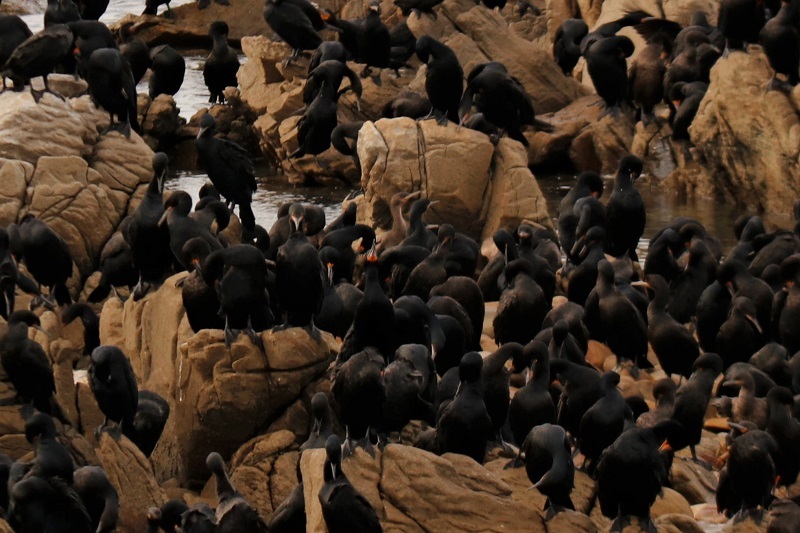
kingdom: Animalia
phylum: Chordata
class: Aves
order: Suliformes
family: Phalacrocoracidae
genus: Phalacrocorax
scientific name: Phalacrocorax capensis
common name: Cape cormorant
